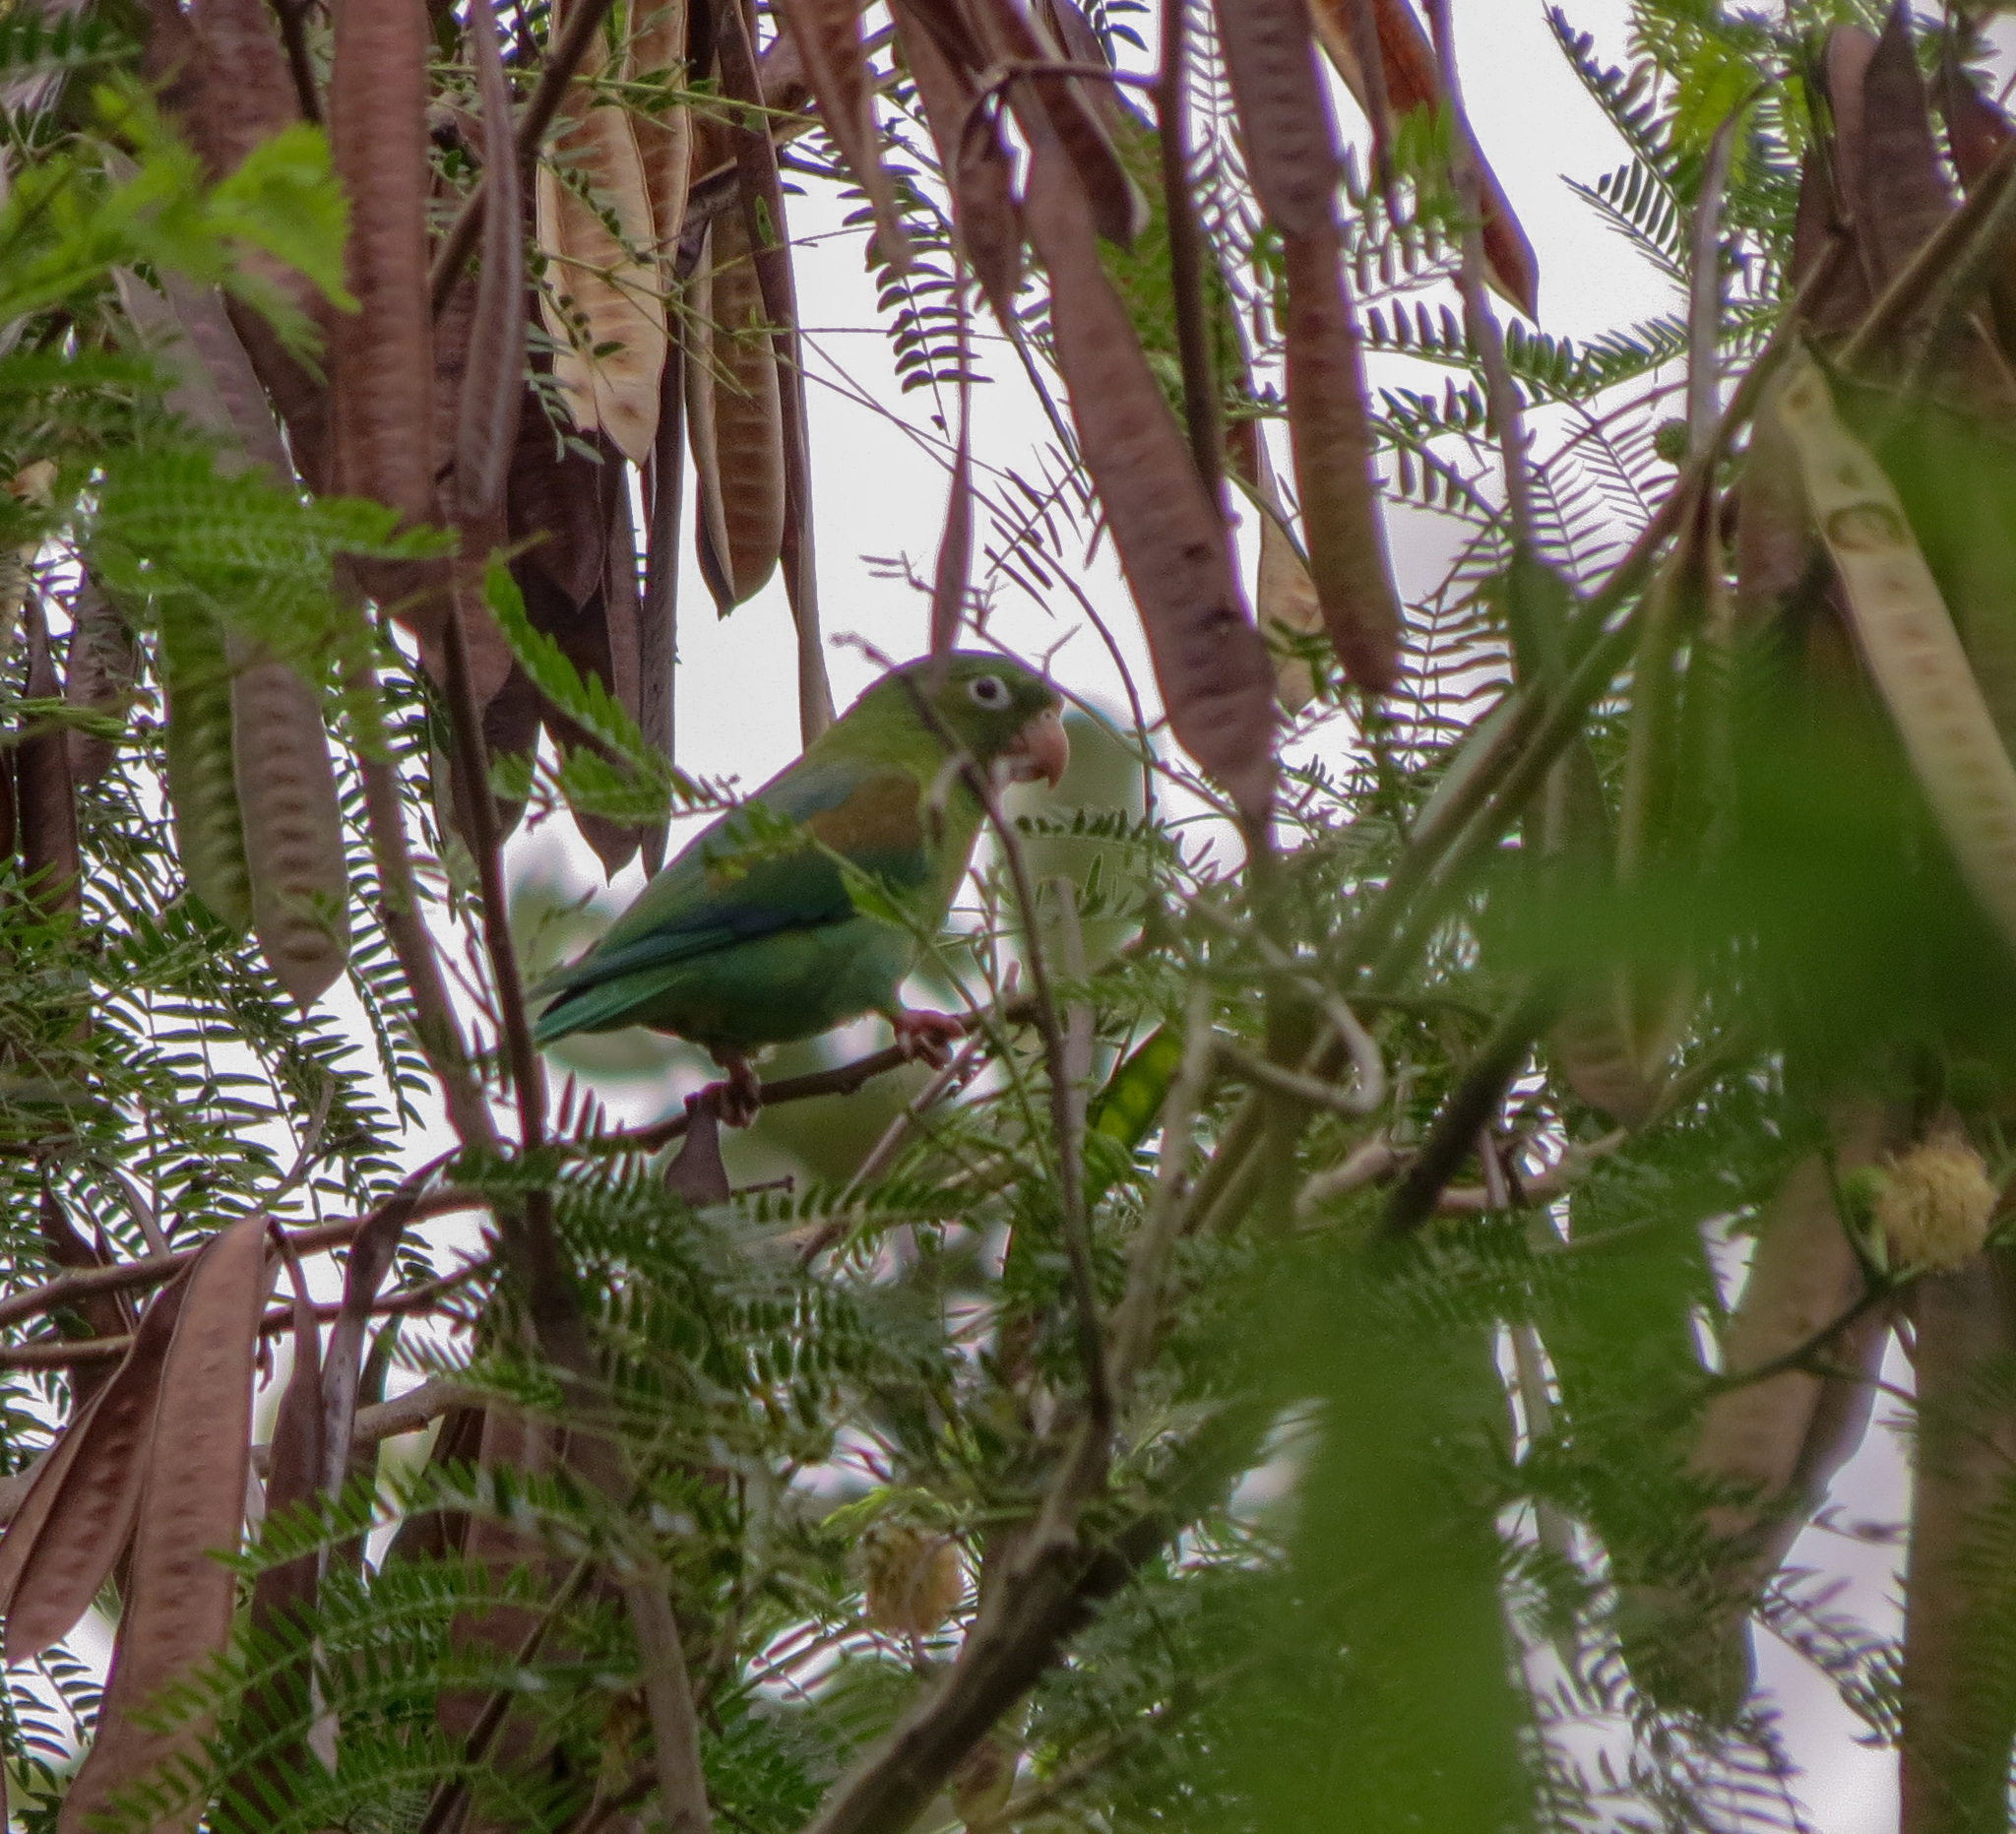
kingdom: Animalia
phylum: Chordata
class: Aves
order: Psittaciformes
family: Psittacidae
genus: Brotogeris
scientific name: Brotogeris jugularis
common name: Orange-chinned parakeet
